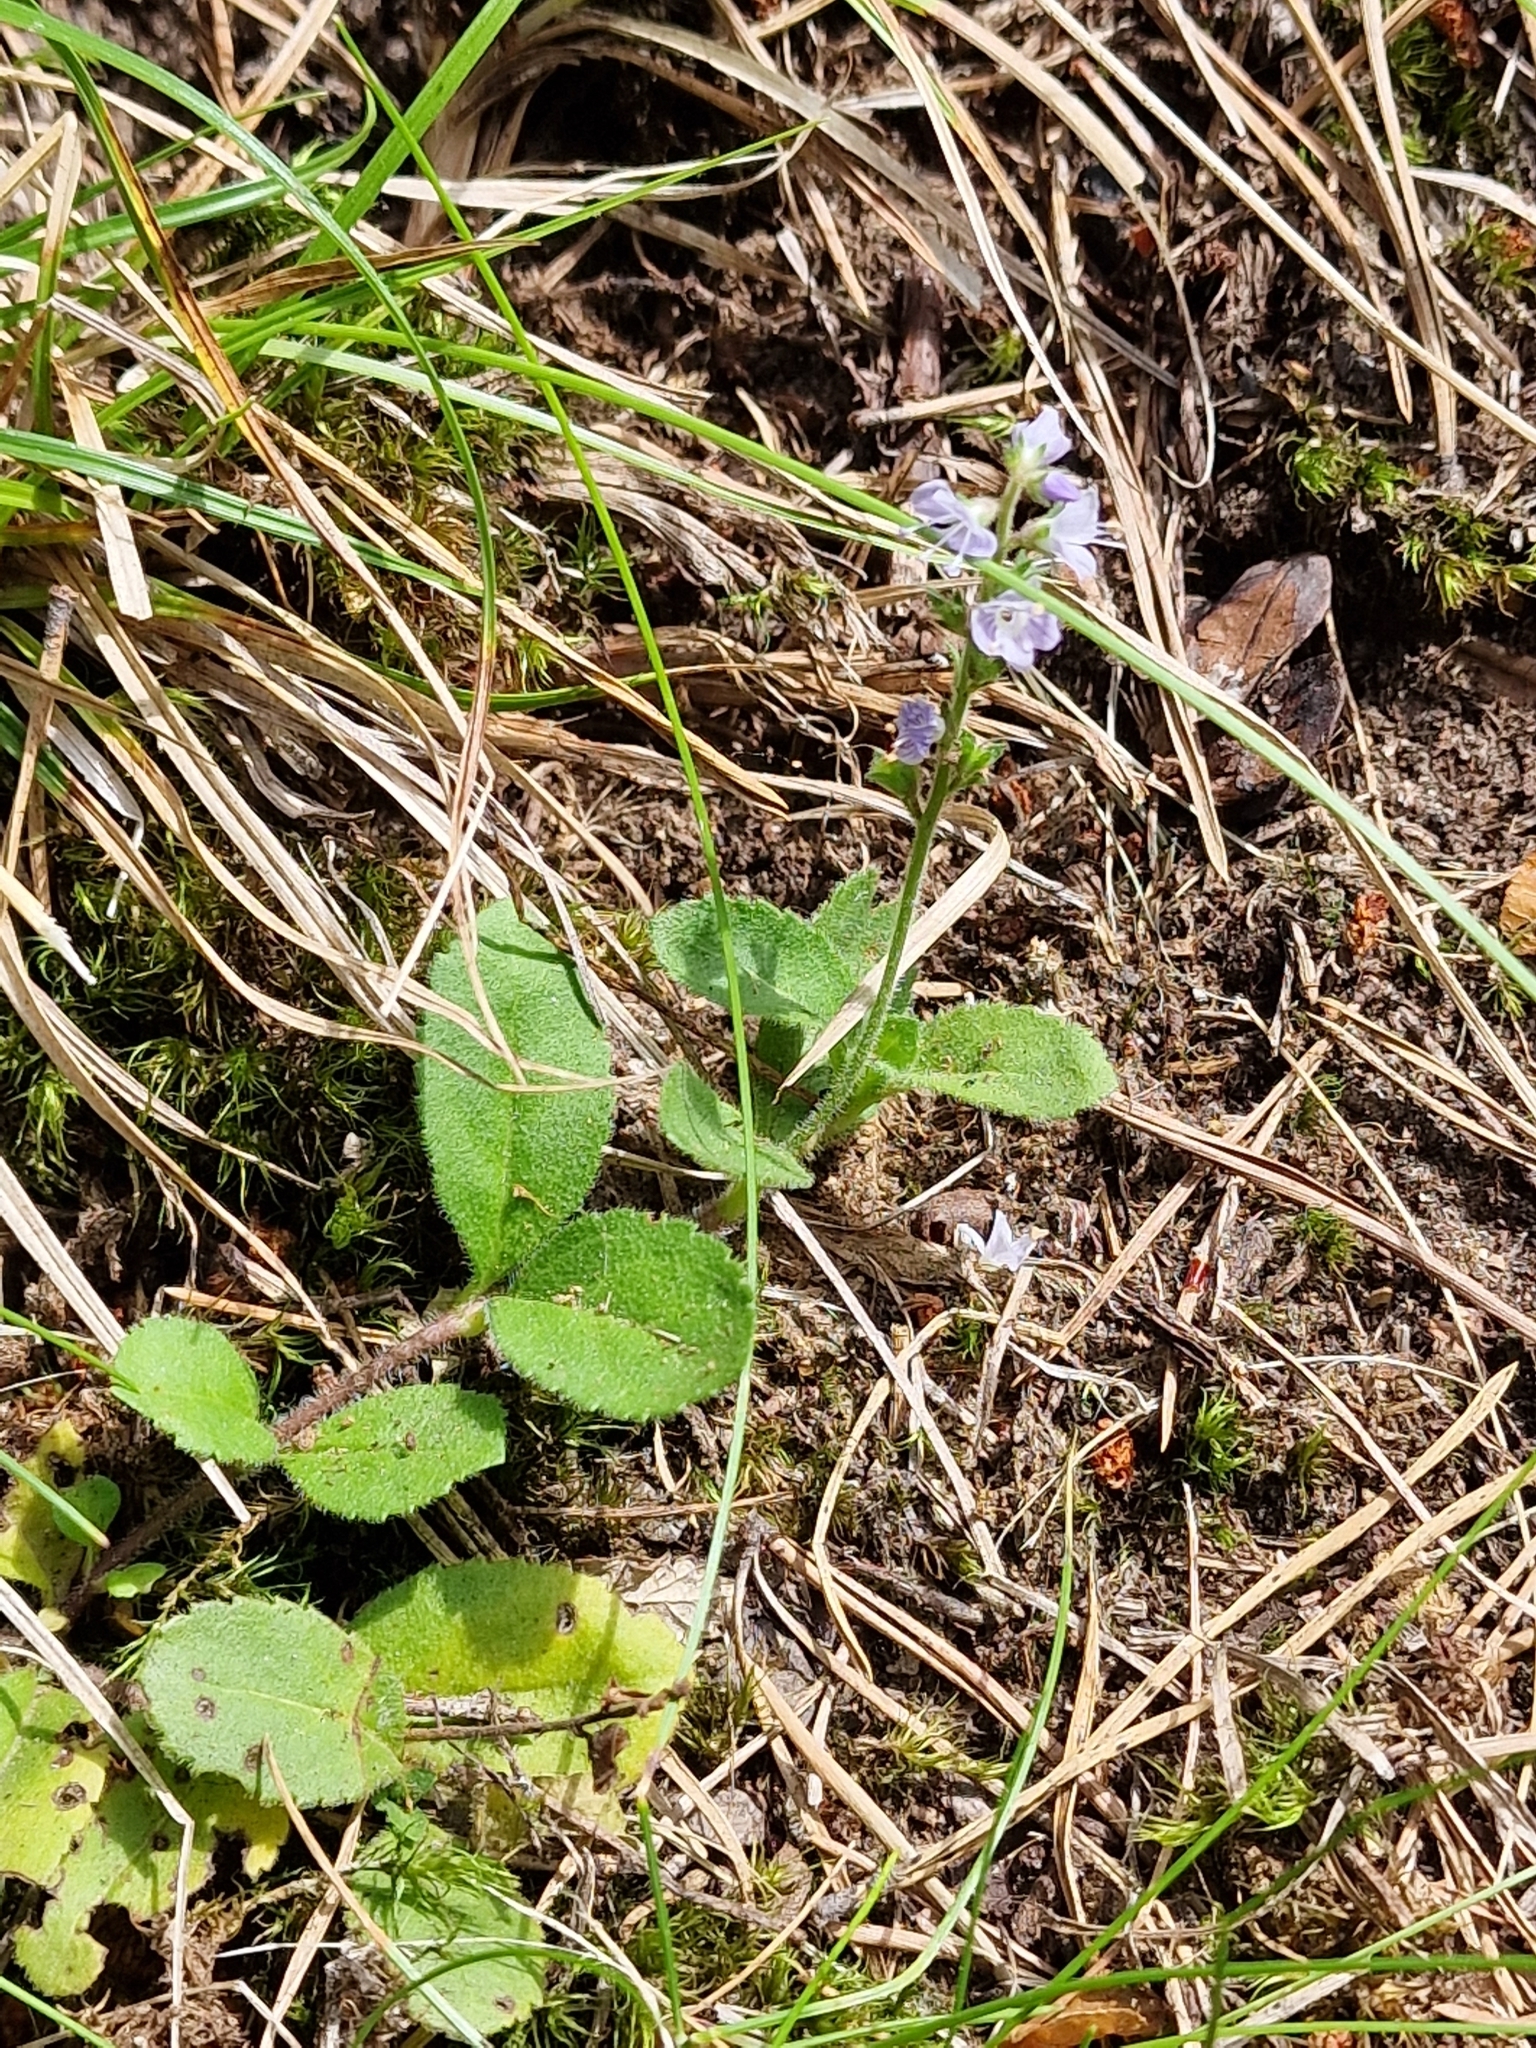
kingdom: Plantae
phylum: Tracheophyta
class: Magnoliopsida
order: Lamiales
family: Plantaginaceae
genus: Veronica
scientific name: Veronica officinalis
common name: Common speedwell
